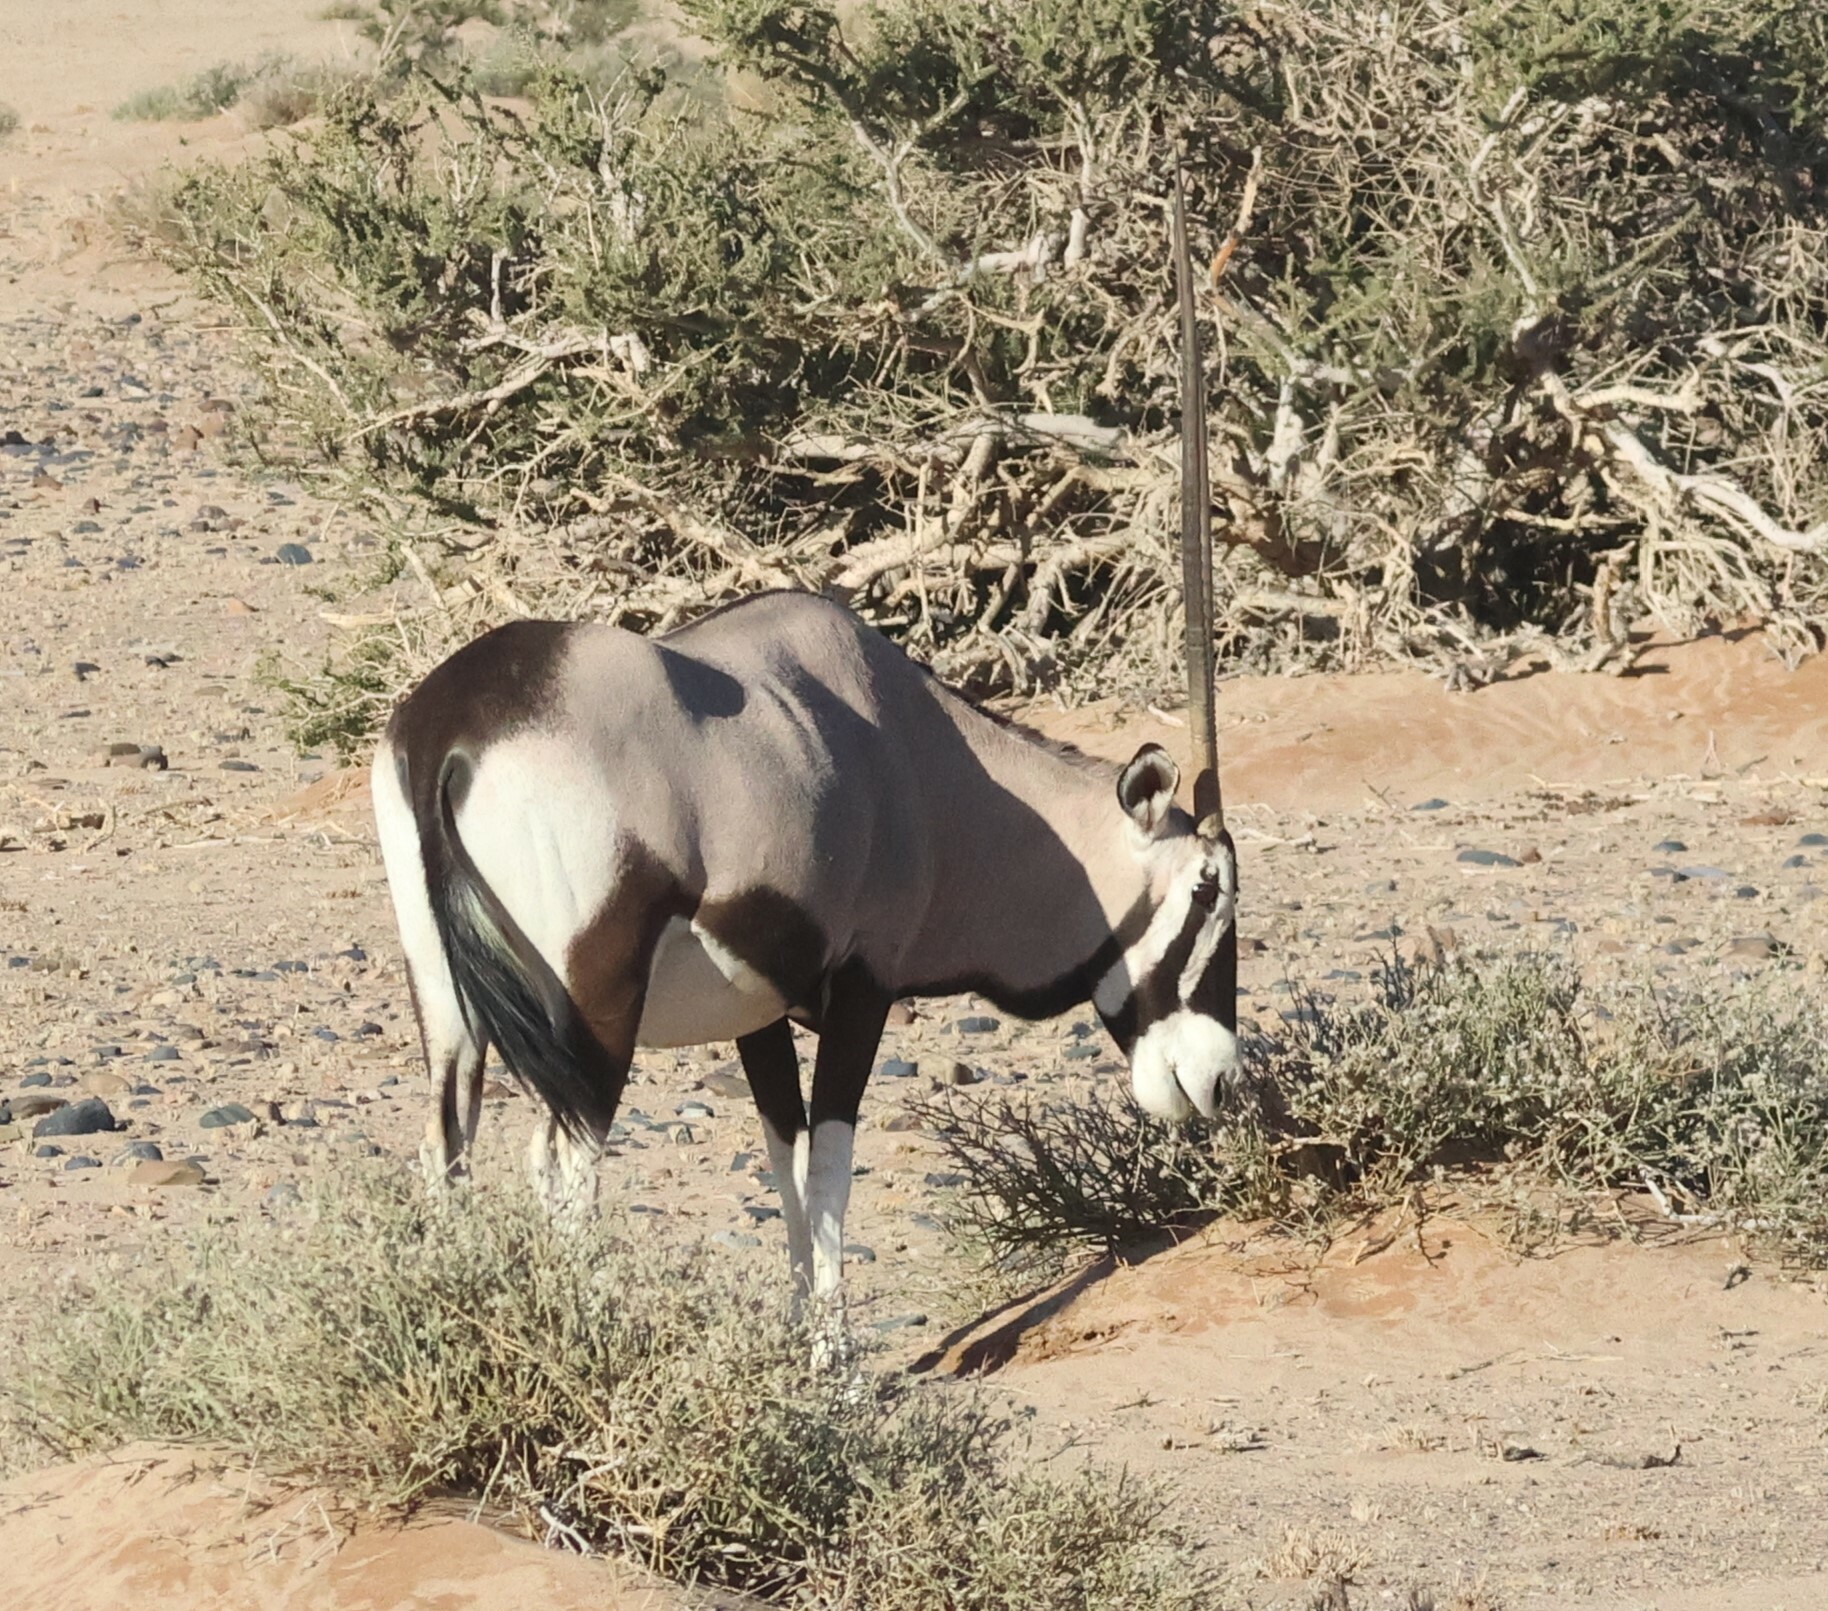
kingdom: Animalia
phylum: Chordata
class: Mammalia
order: Artiodactyla
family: Bovidae
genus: Oryx
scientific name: Oryx gazella
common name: Gemsbok
